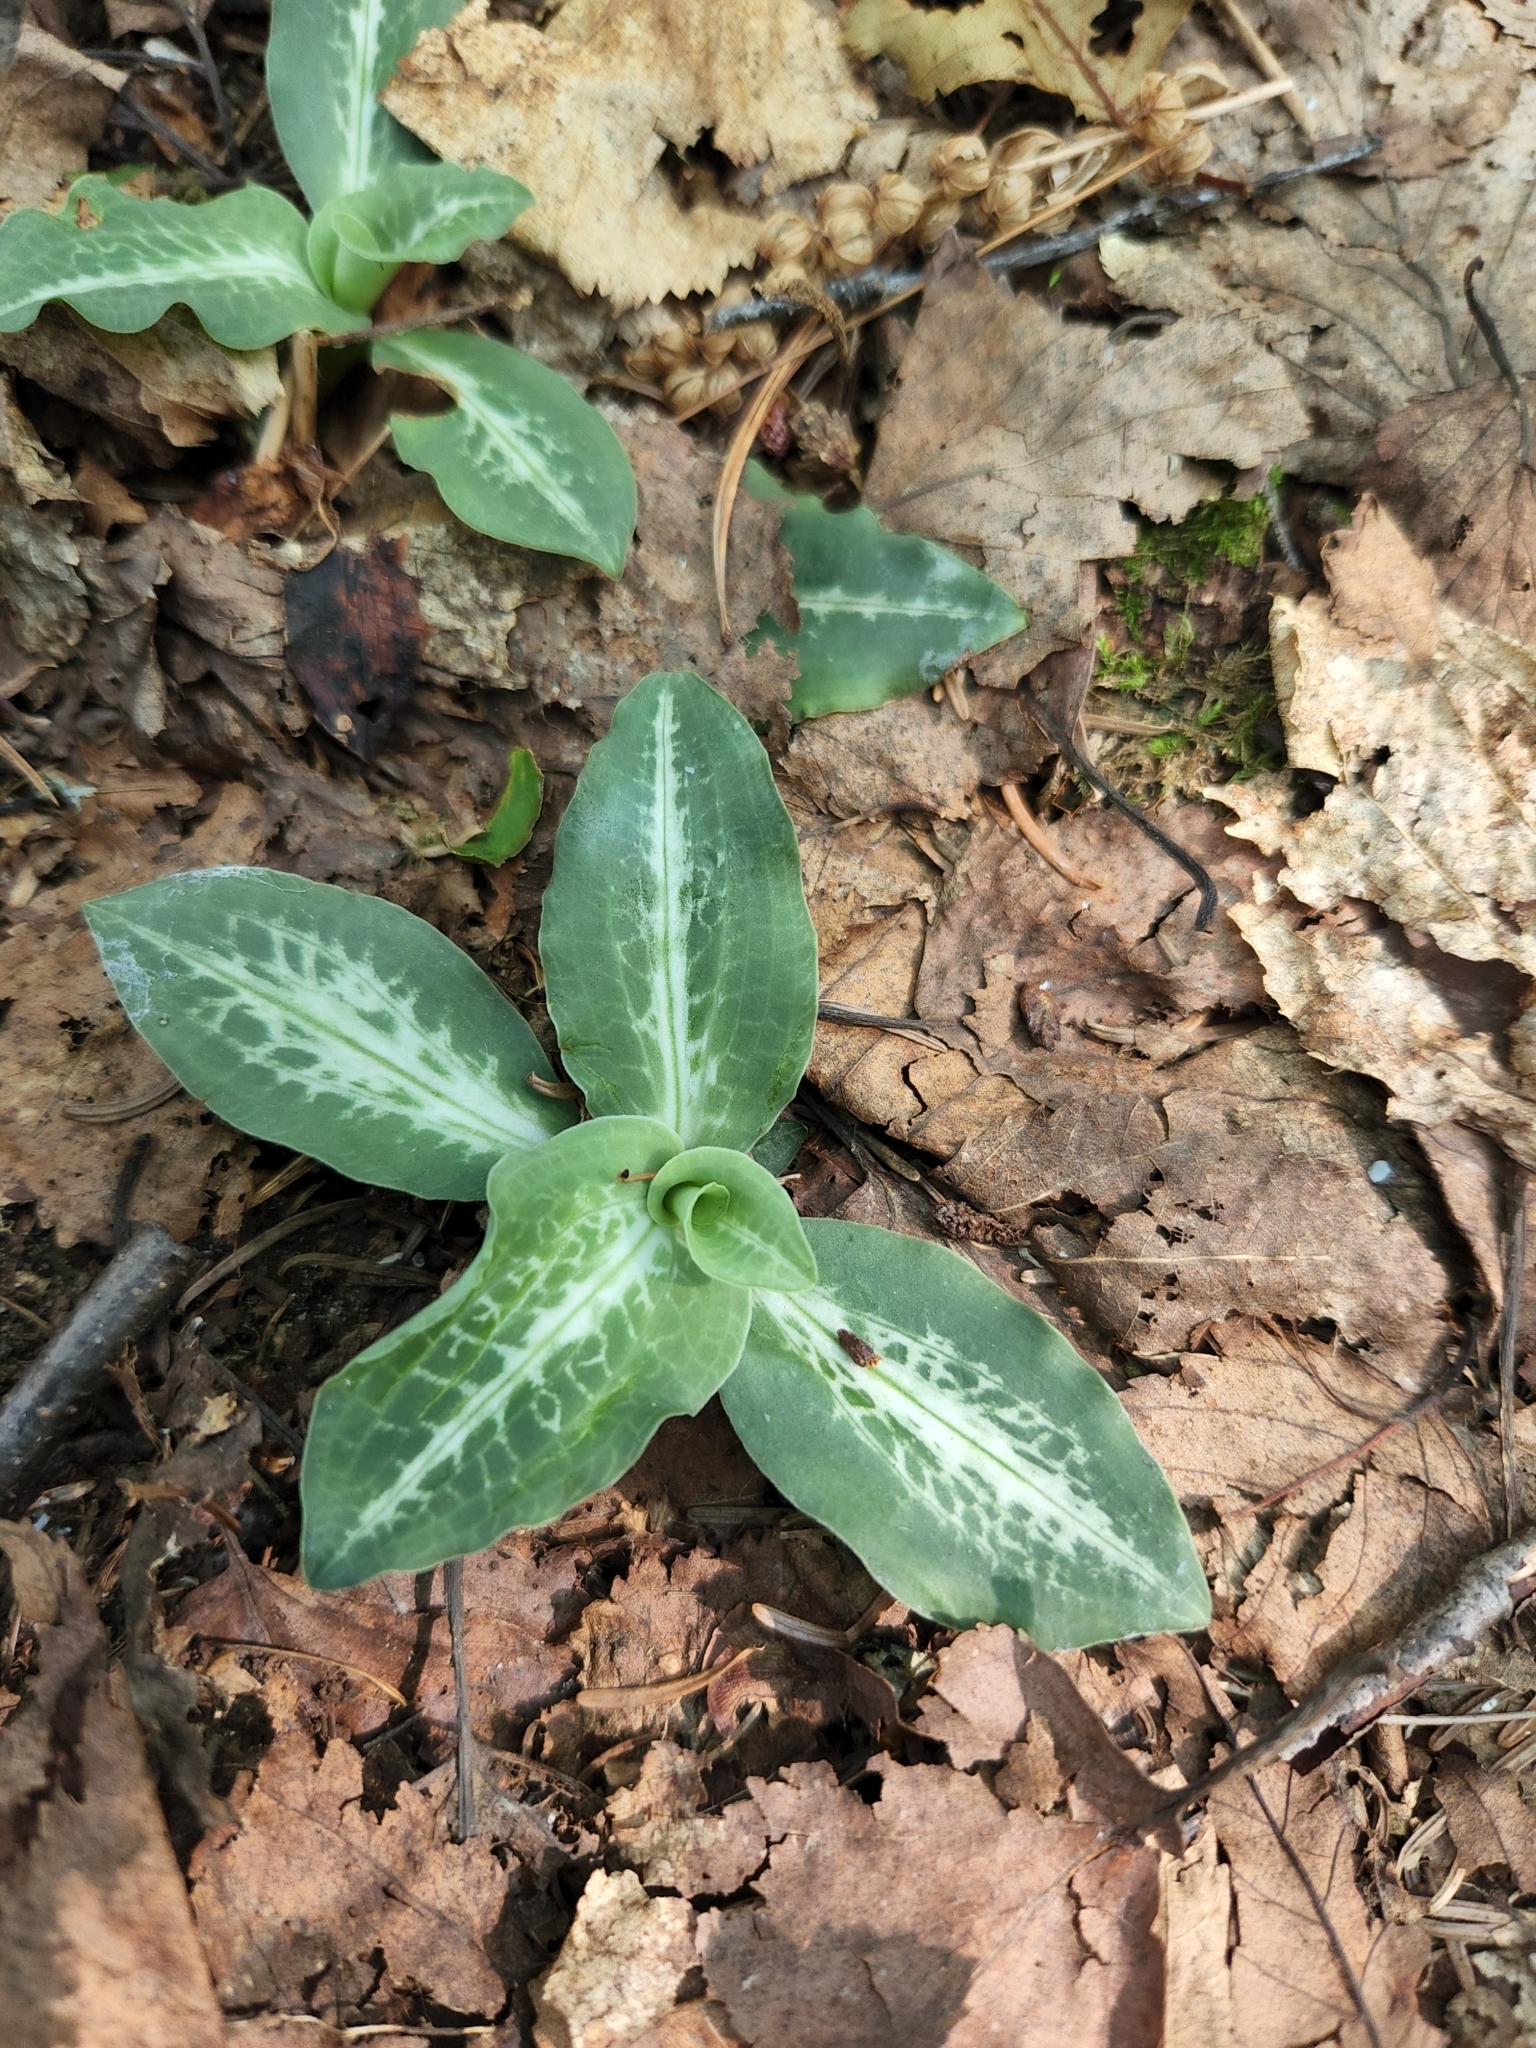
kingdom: Plantae
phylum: Tracheophyta
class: Liliopsida
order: Asparagales
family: Orchidaceae
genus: Goodyera
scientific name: Goodyera oblongifolia
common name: Giant rattlesnake-plantain
